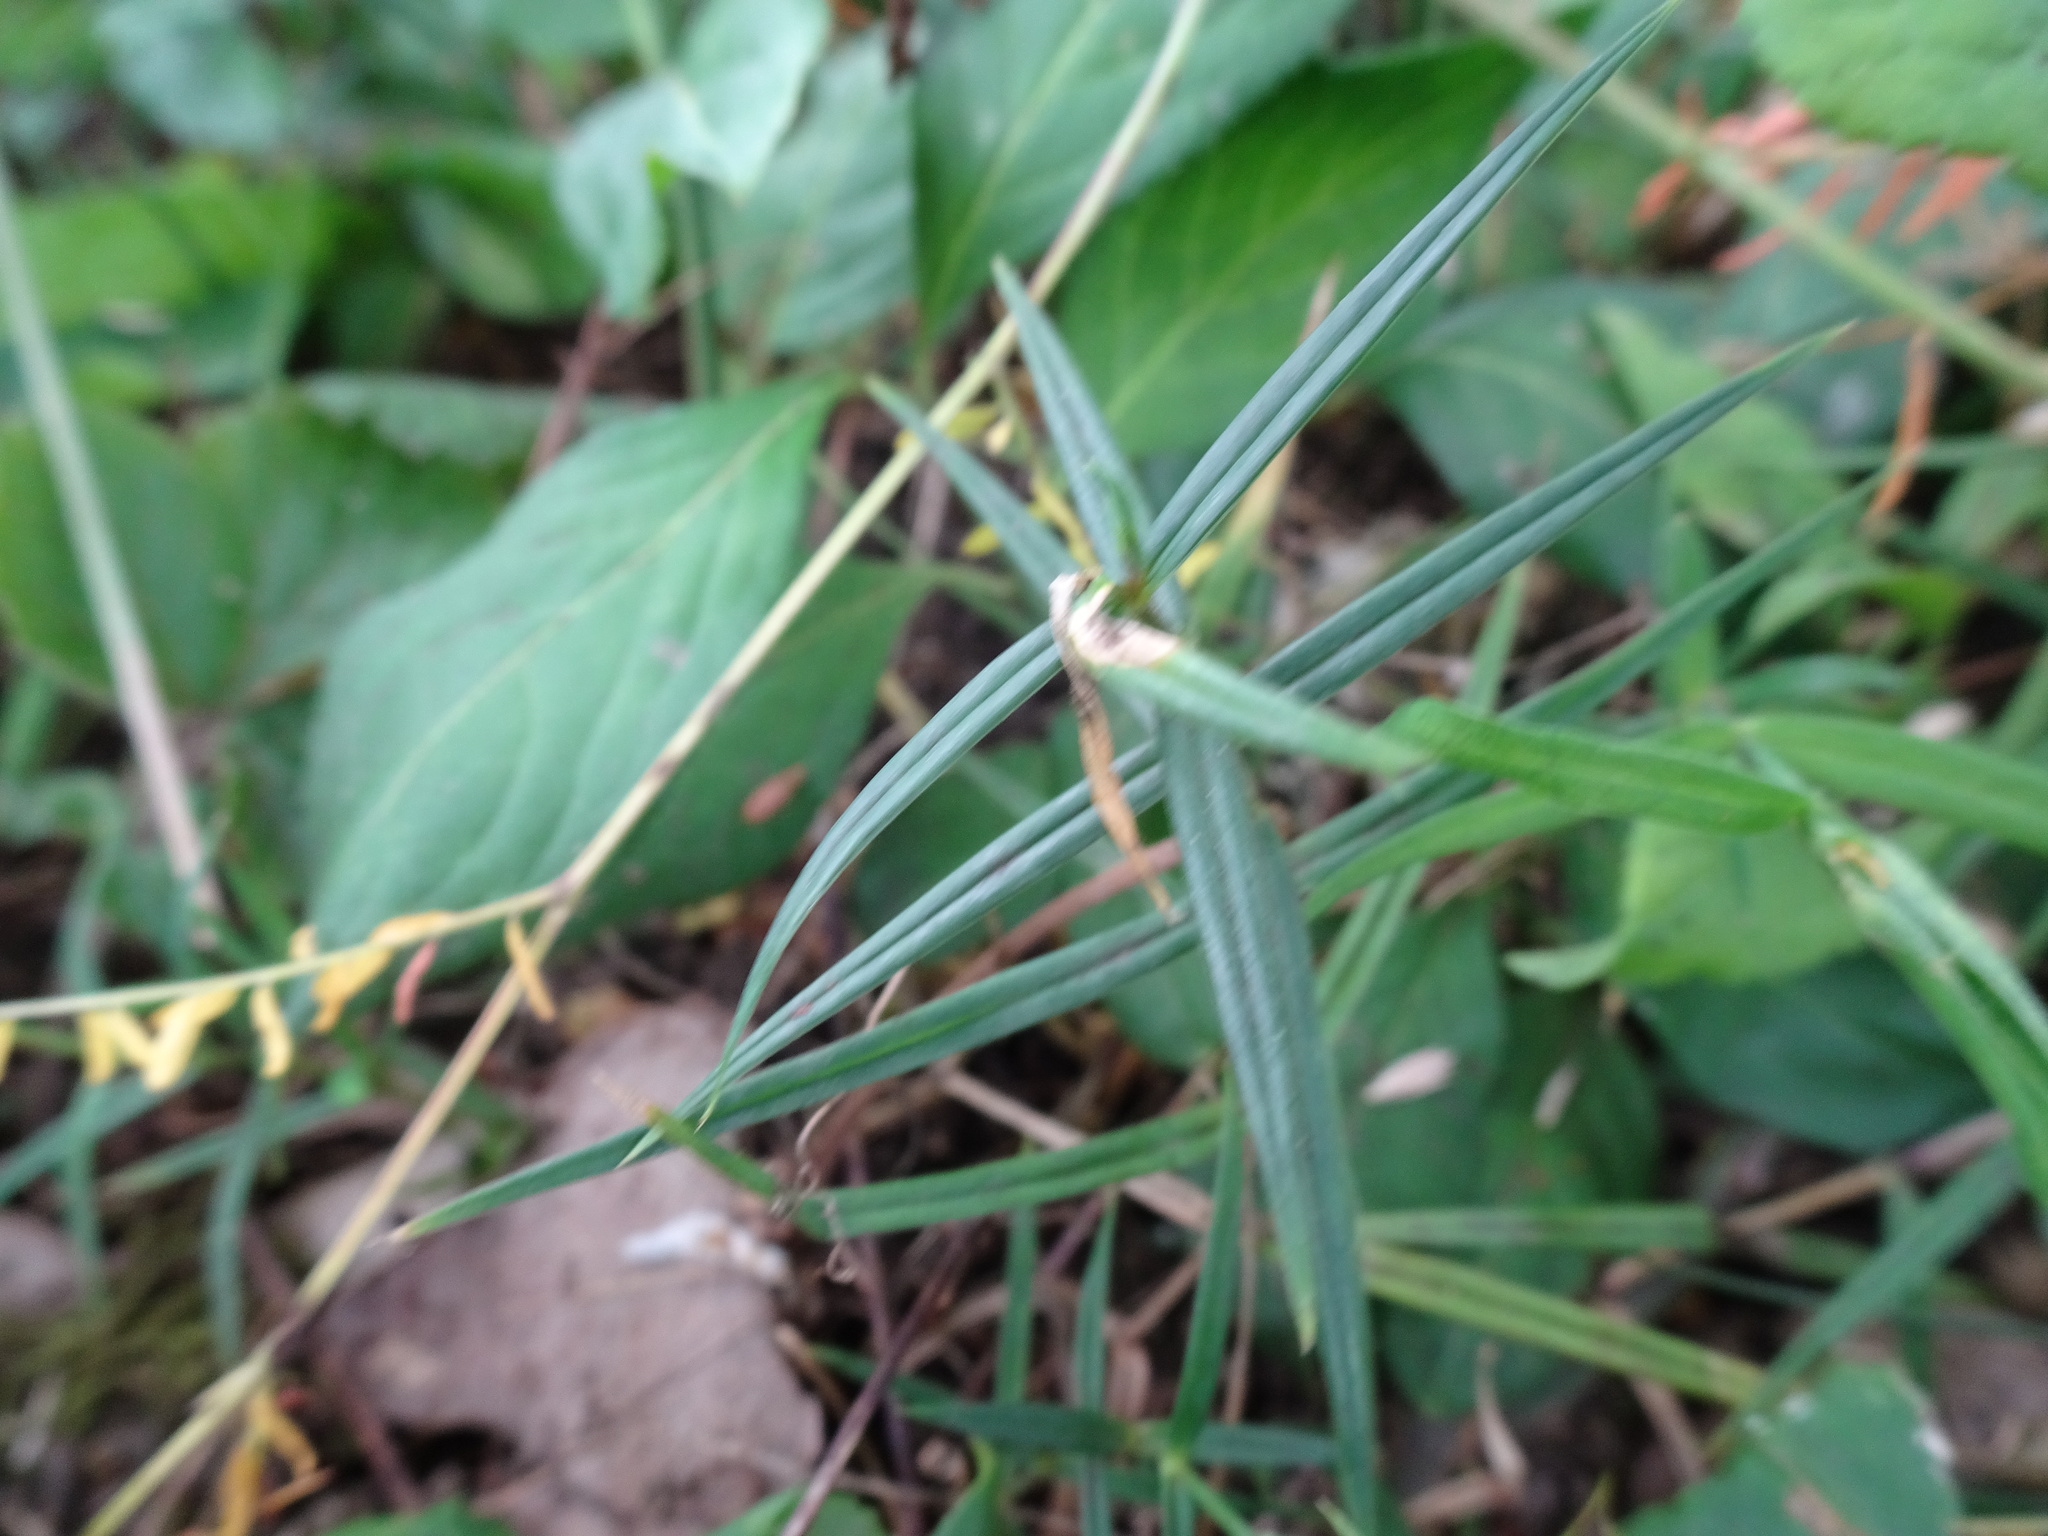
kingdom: Plantae
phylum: Tracheophyta
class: Magnoliopsida
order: Caryophyllales
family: Caryophyllaceae
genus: Rabelera
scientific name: Rabelera holostea
